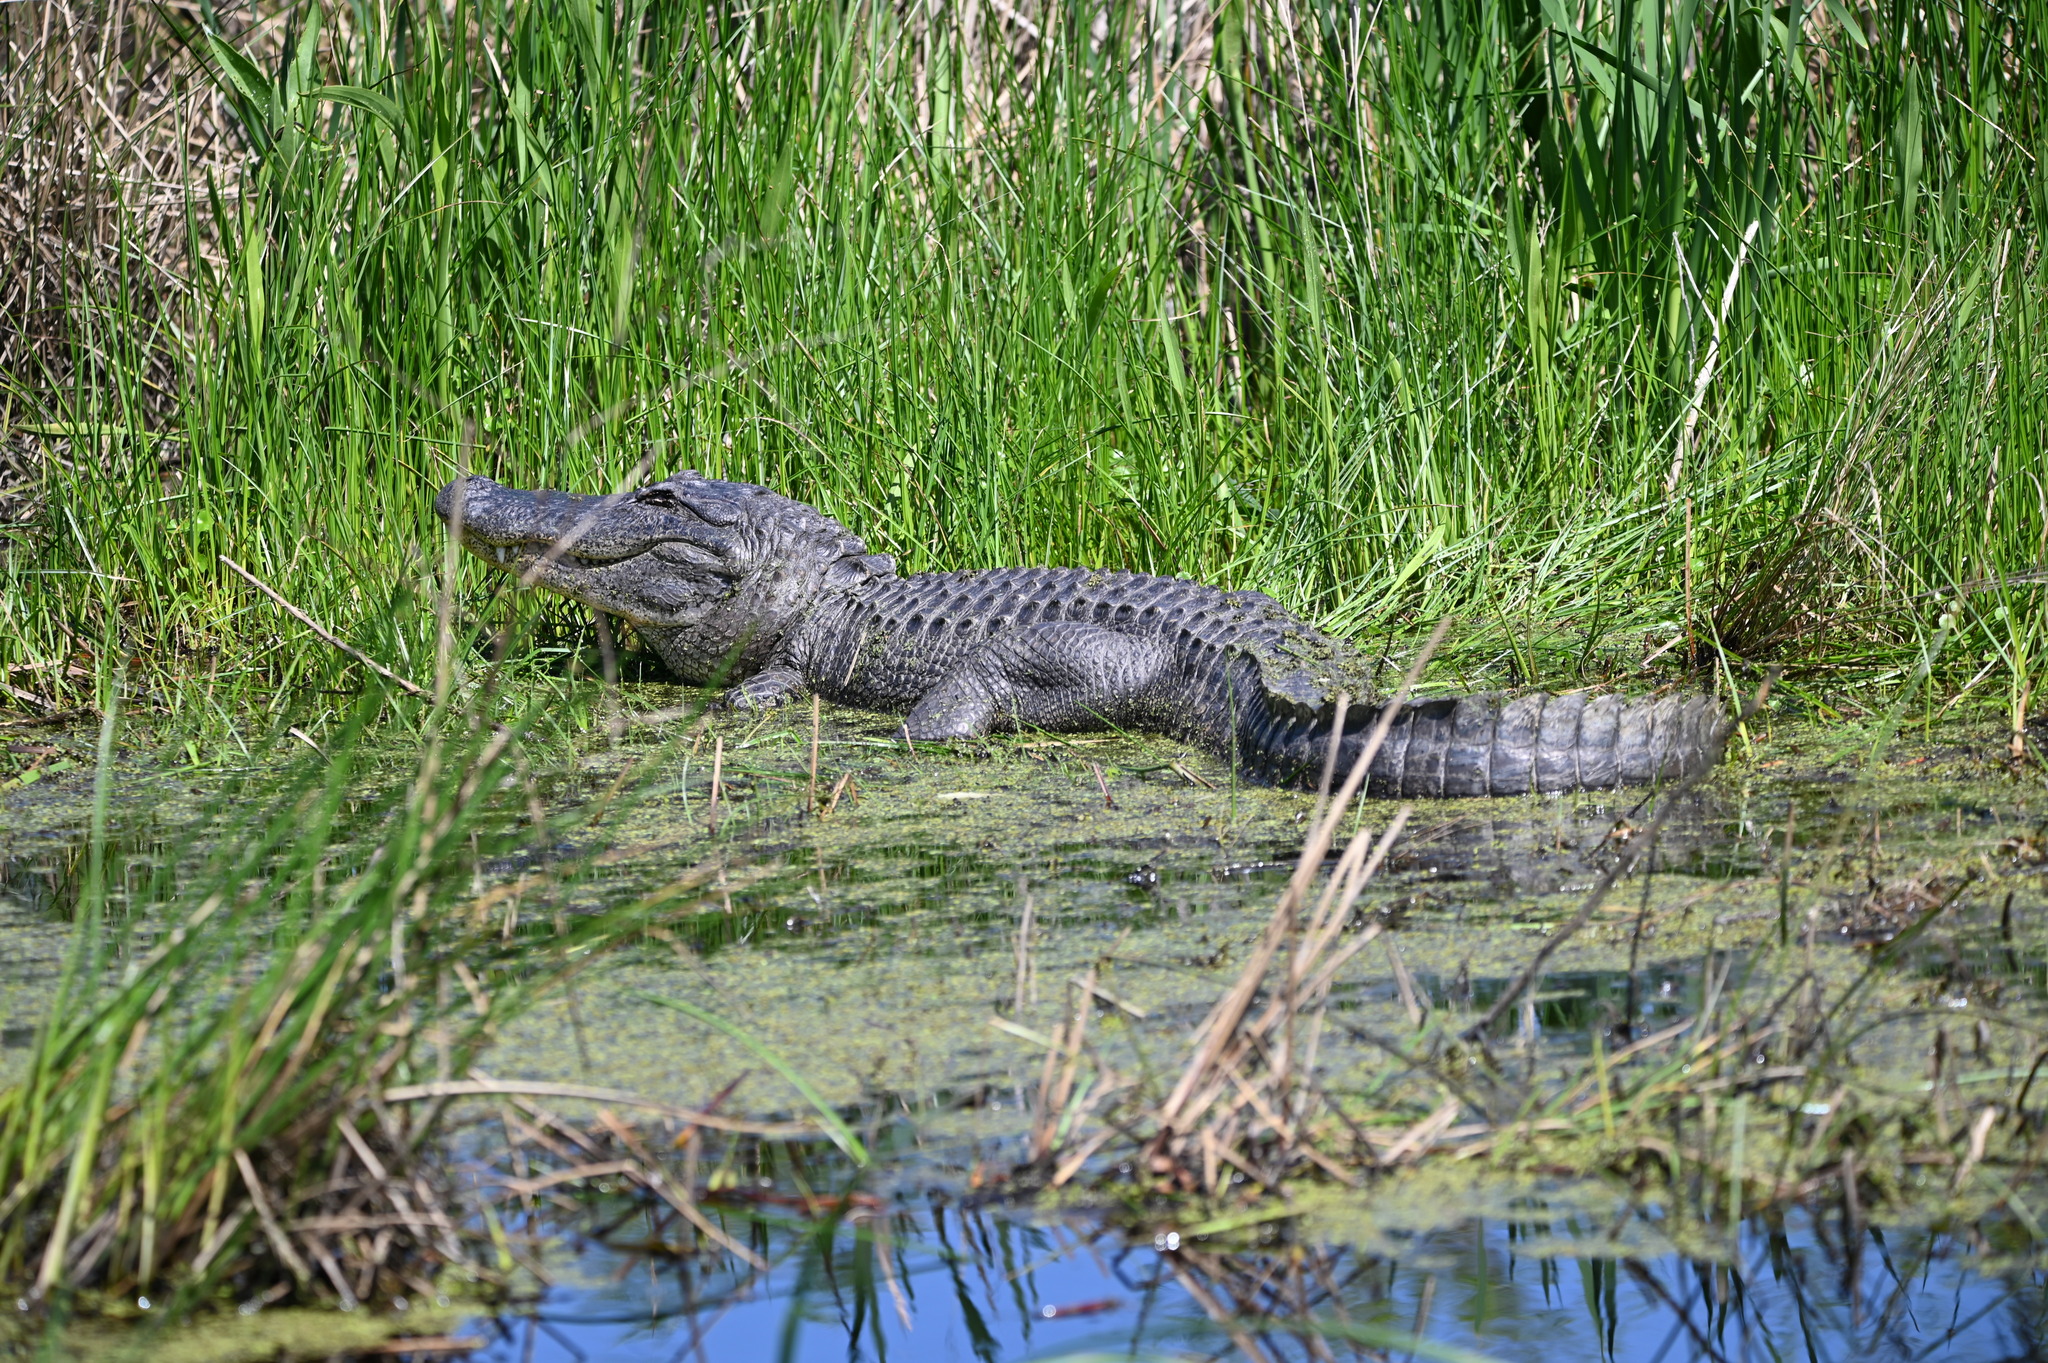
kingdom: Animalia
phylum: Chordata
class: Crocodylia
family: Alligatoridae
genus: Alligator
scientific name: Alligator mississippiensis
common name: American alligator
